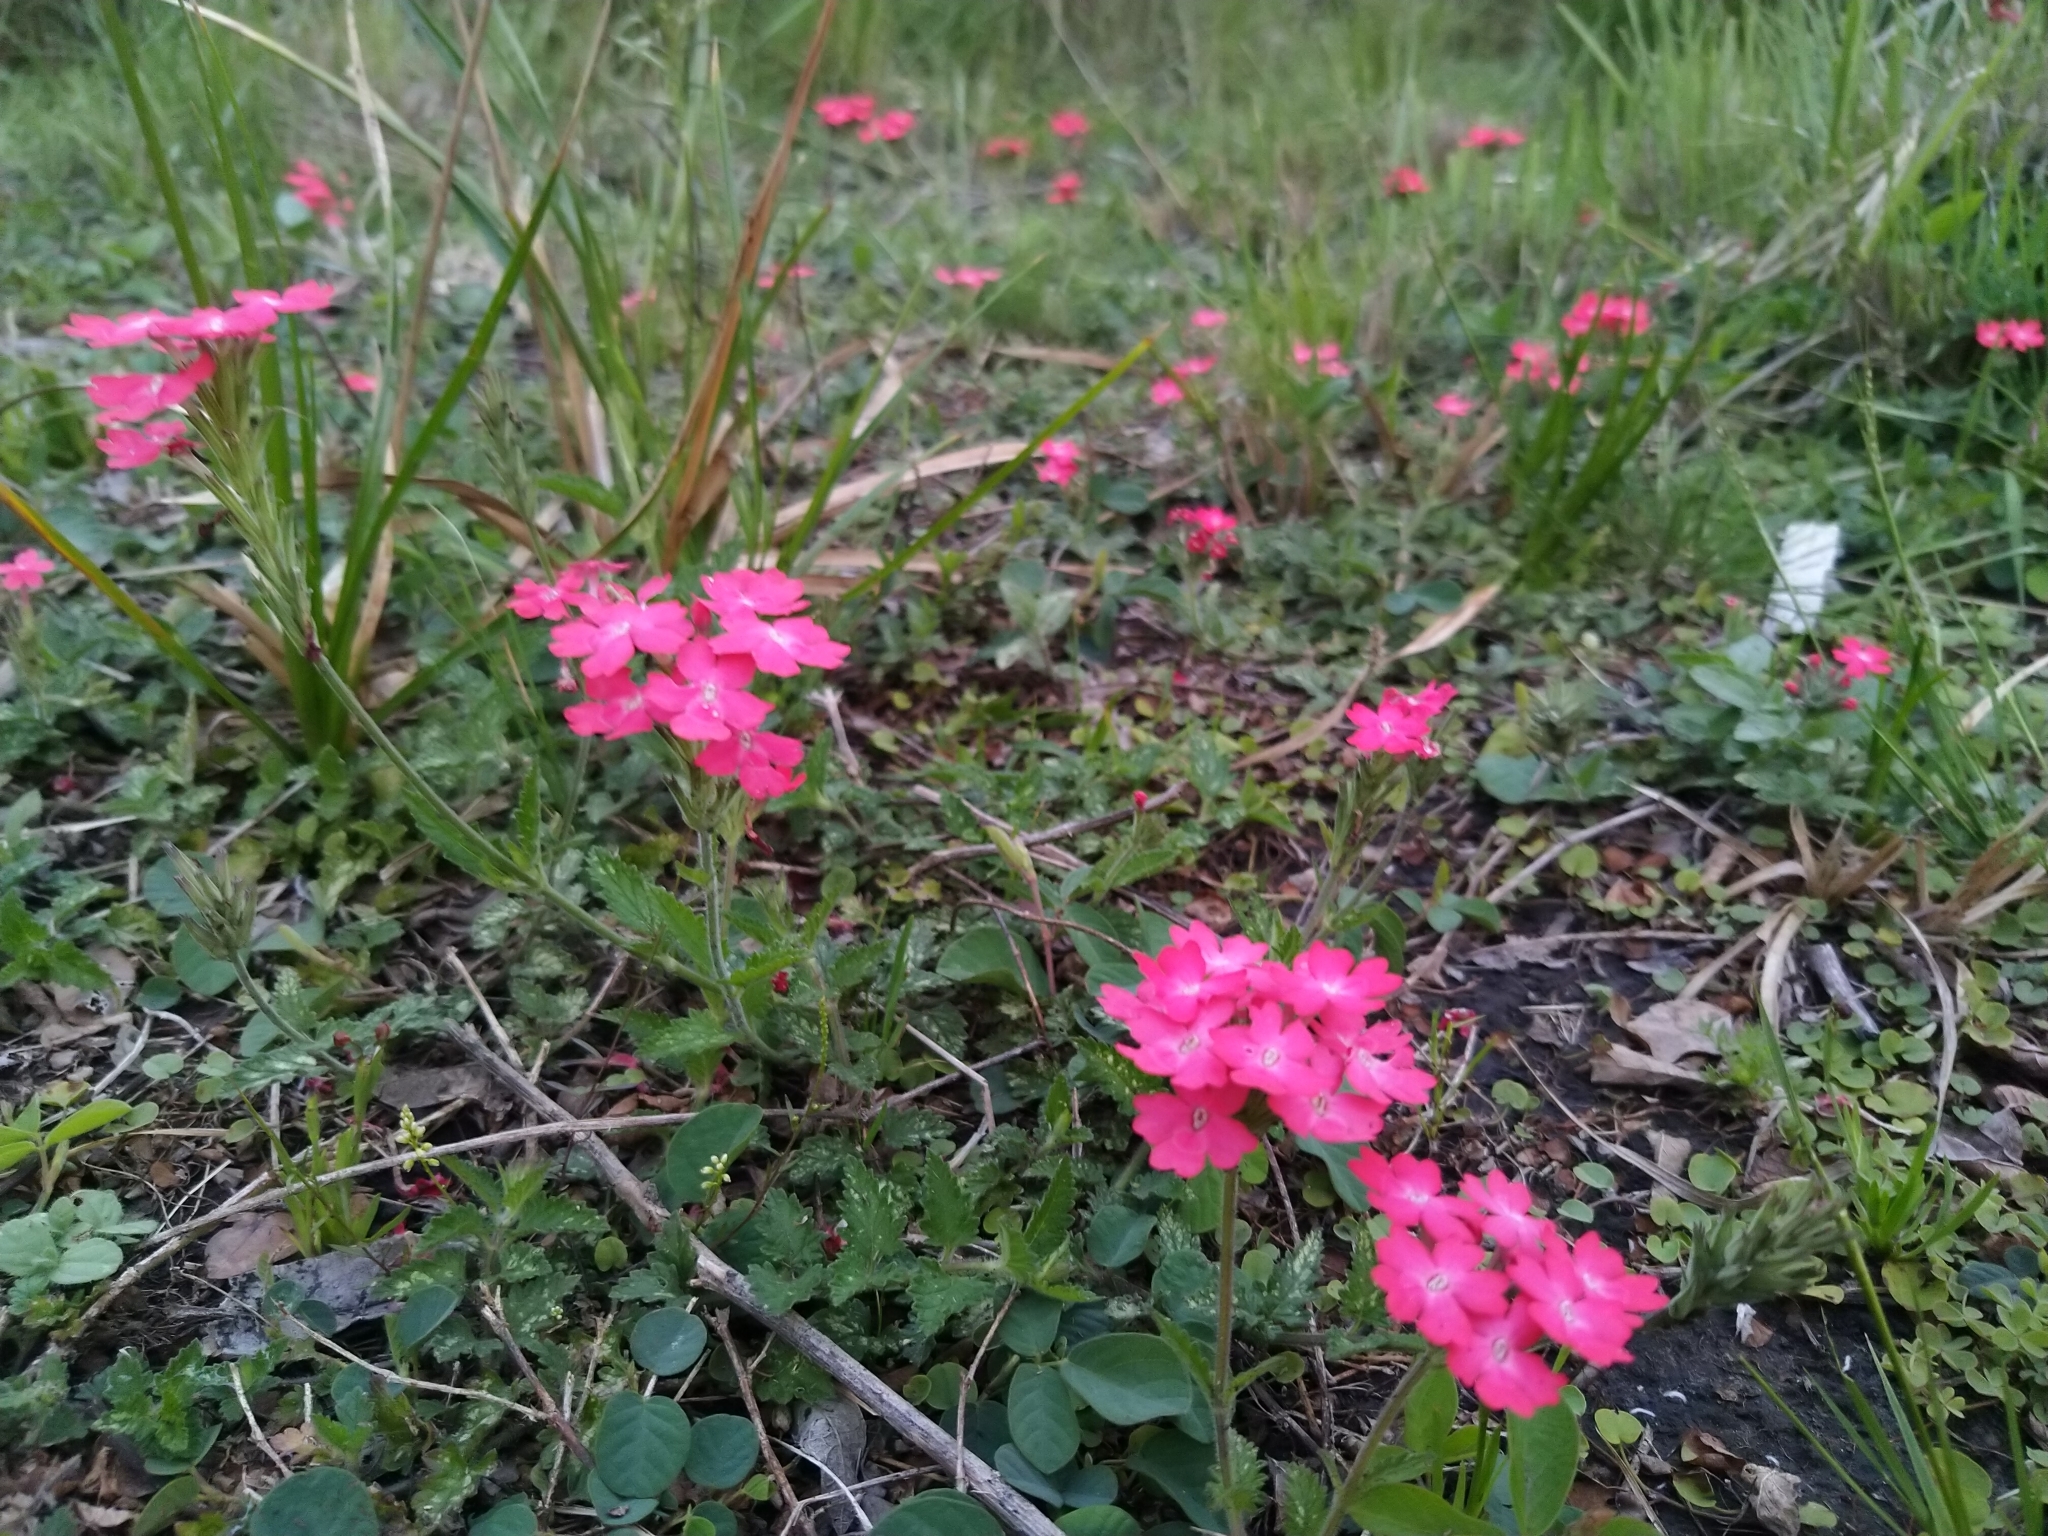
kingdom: Plantae
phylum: Tracheophyta
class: Magnoliopsida
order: Lamiales
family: Verbenaceae
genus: Verbena
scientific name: Verbena peruviana
